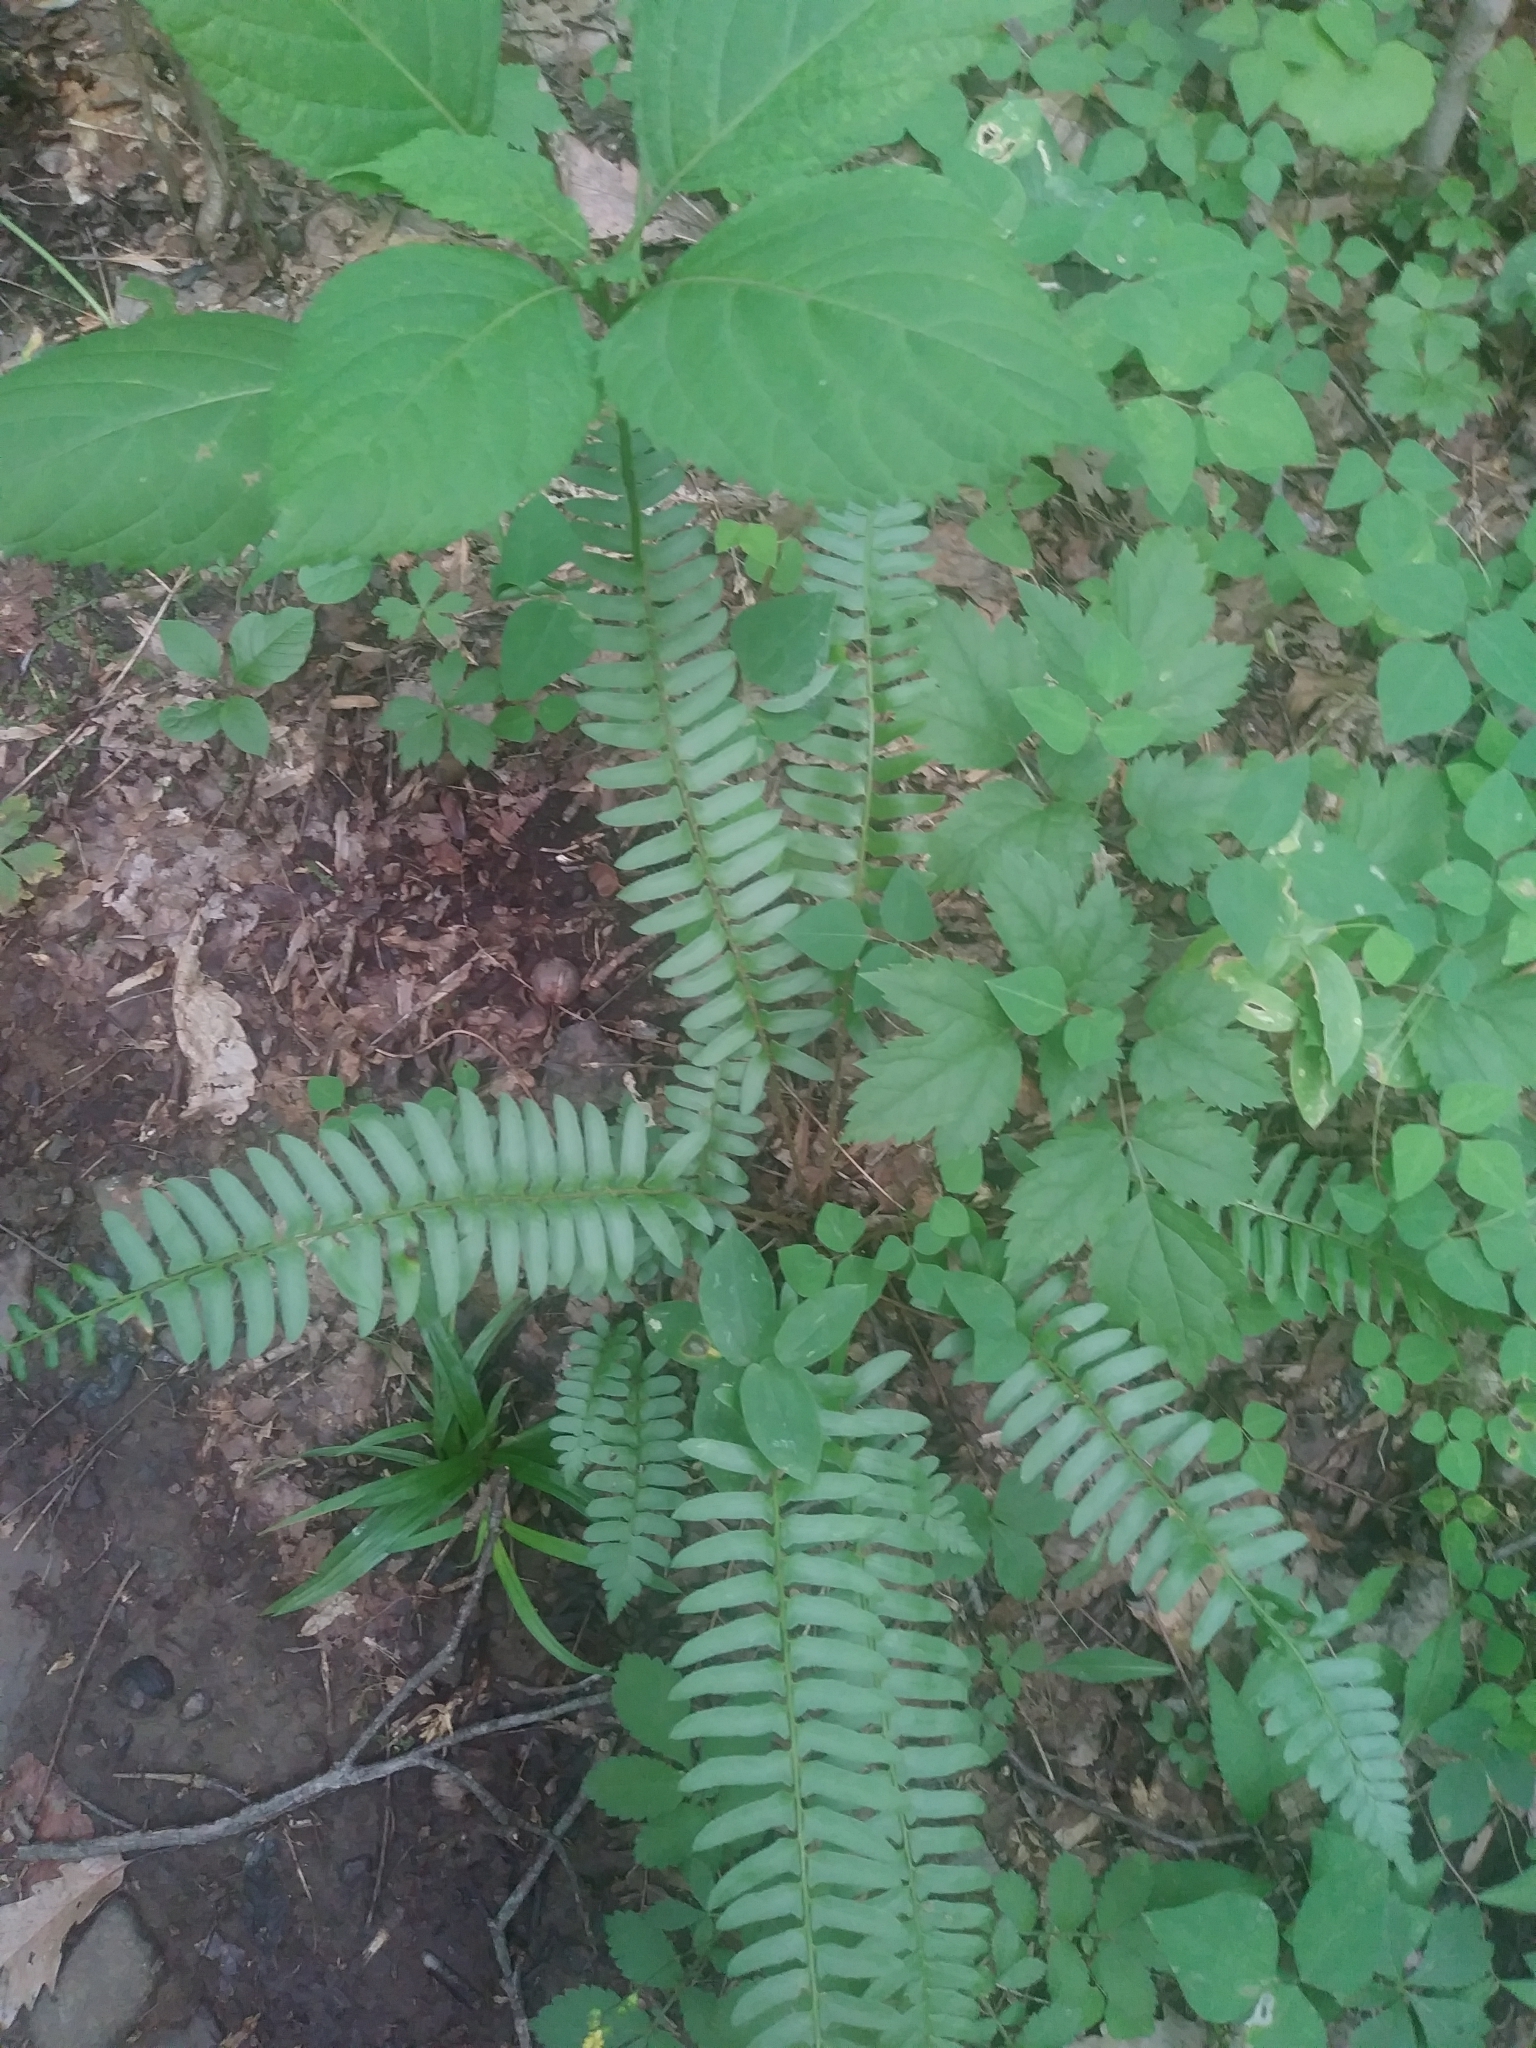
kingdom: Plantae
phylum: Tracheophyta
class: Polypodiopsida
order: Polypodiales
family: Dryopteridaceae
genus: Polystichum
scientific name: Polystichum acrostichoides
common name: Christmas fern
